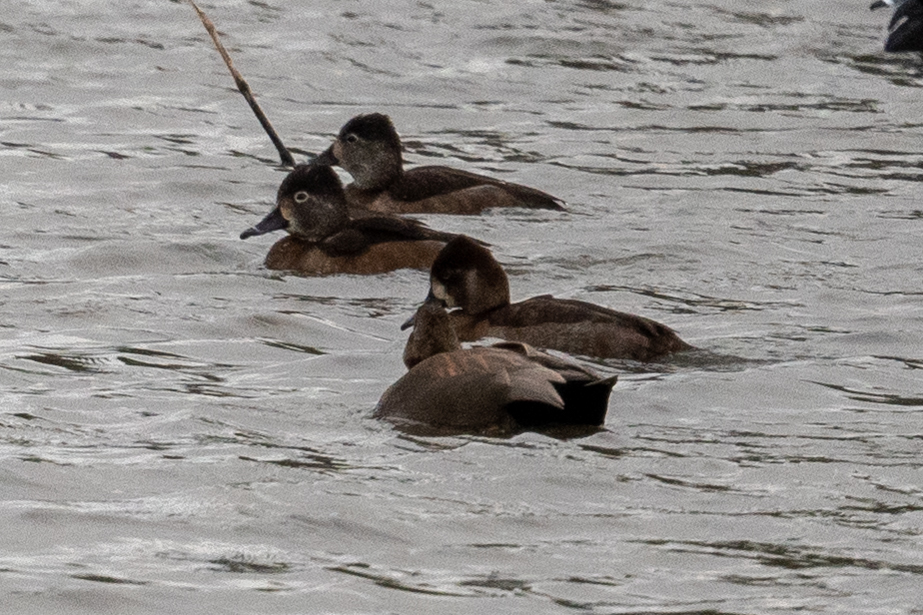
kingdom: Animalia
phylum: Chordata
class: Aves
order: Anseriformes
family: Anatidae
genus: Aythya
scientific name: Aythya collaris
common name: Ring-necked duck
